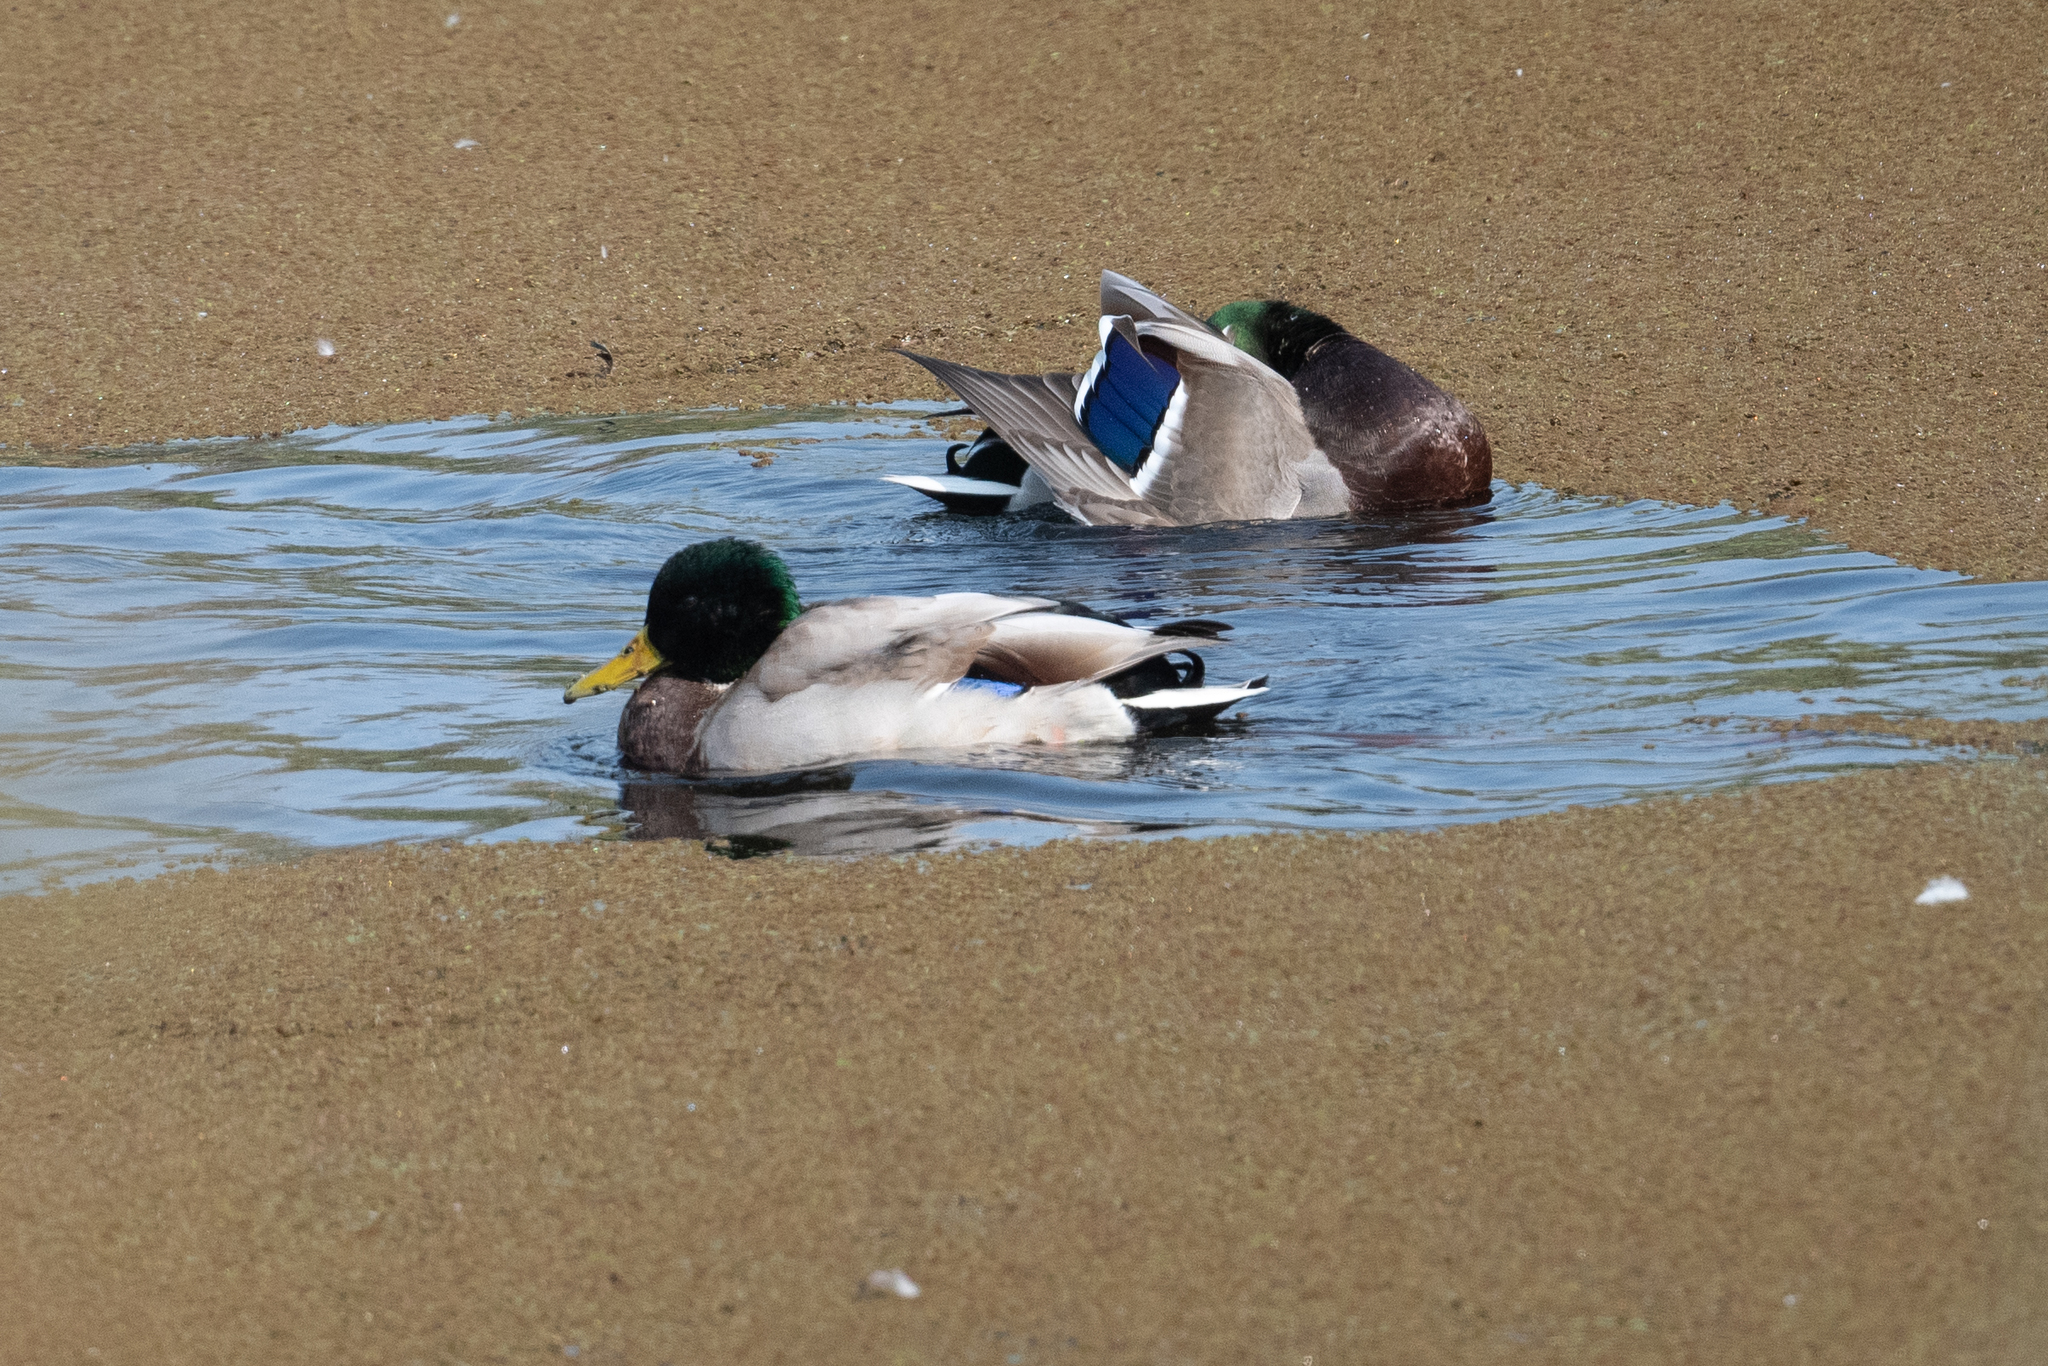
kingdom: Animalia
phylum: Chordata
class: Aves
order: Anseriformes
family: Anatidae
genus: Anas
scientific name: Anas platyrhynchos
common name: Mallard
